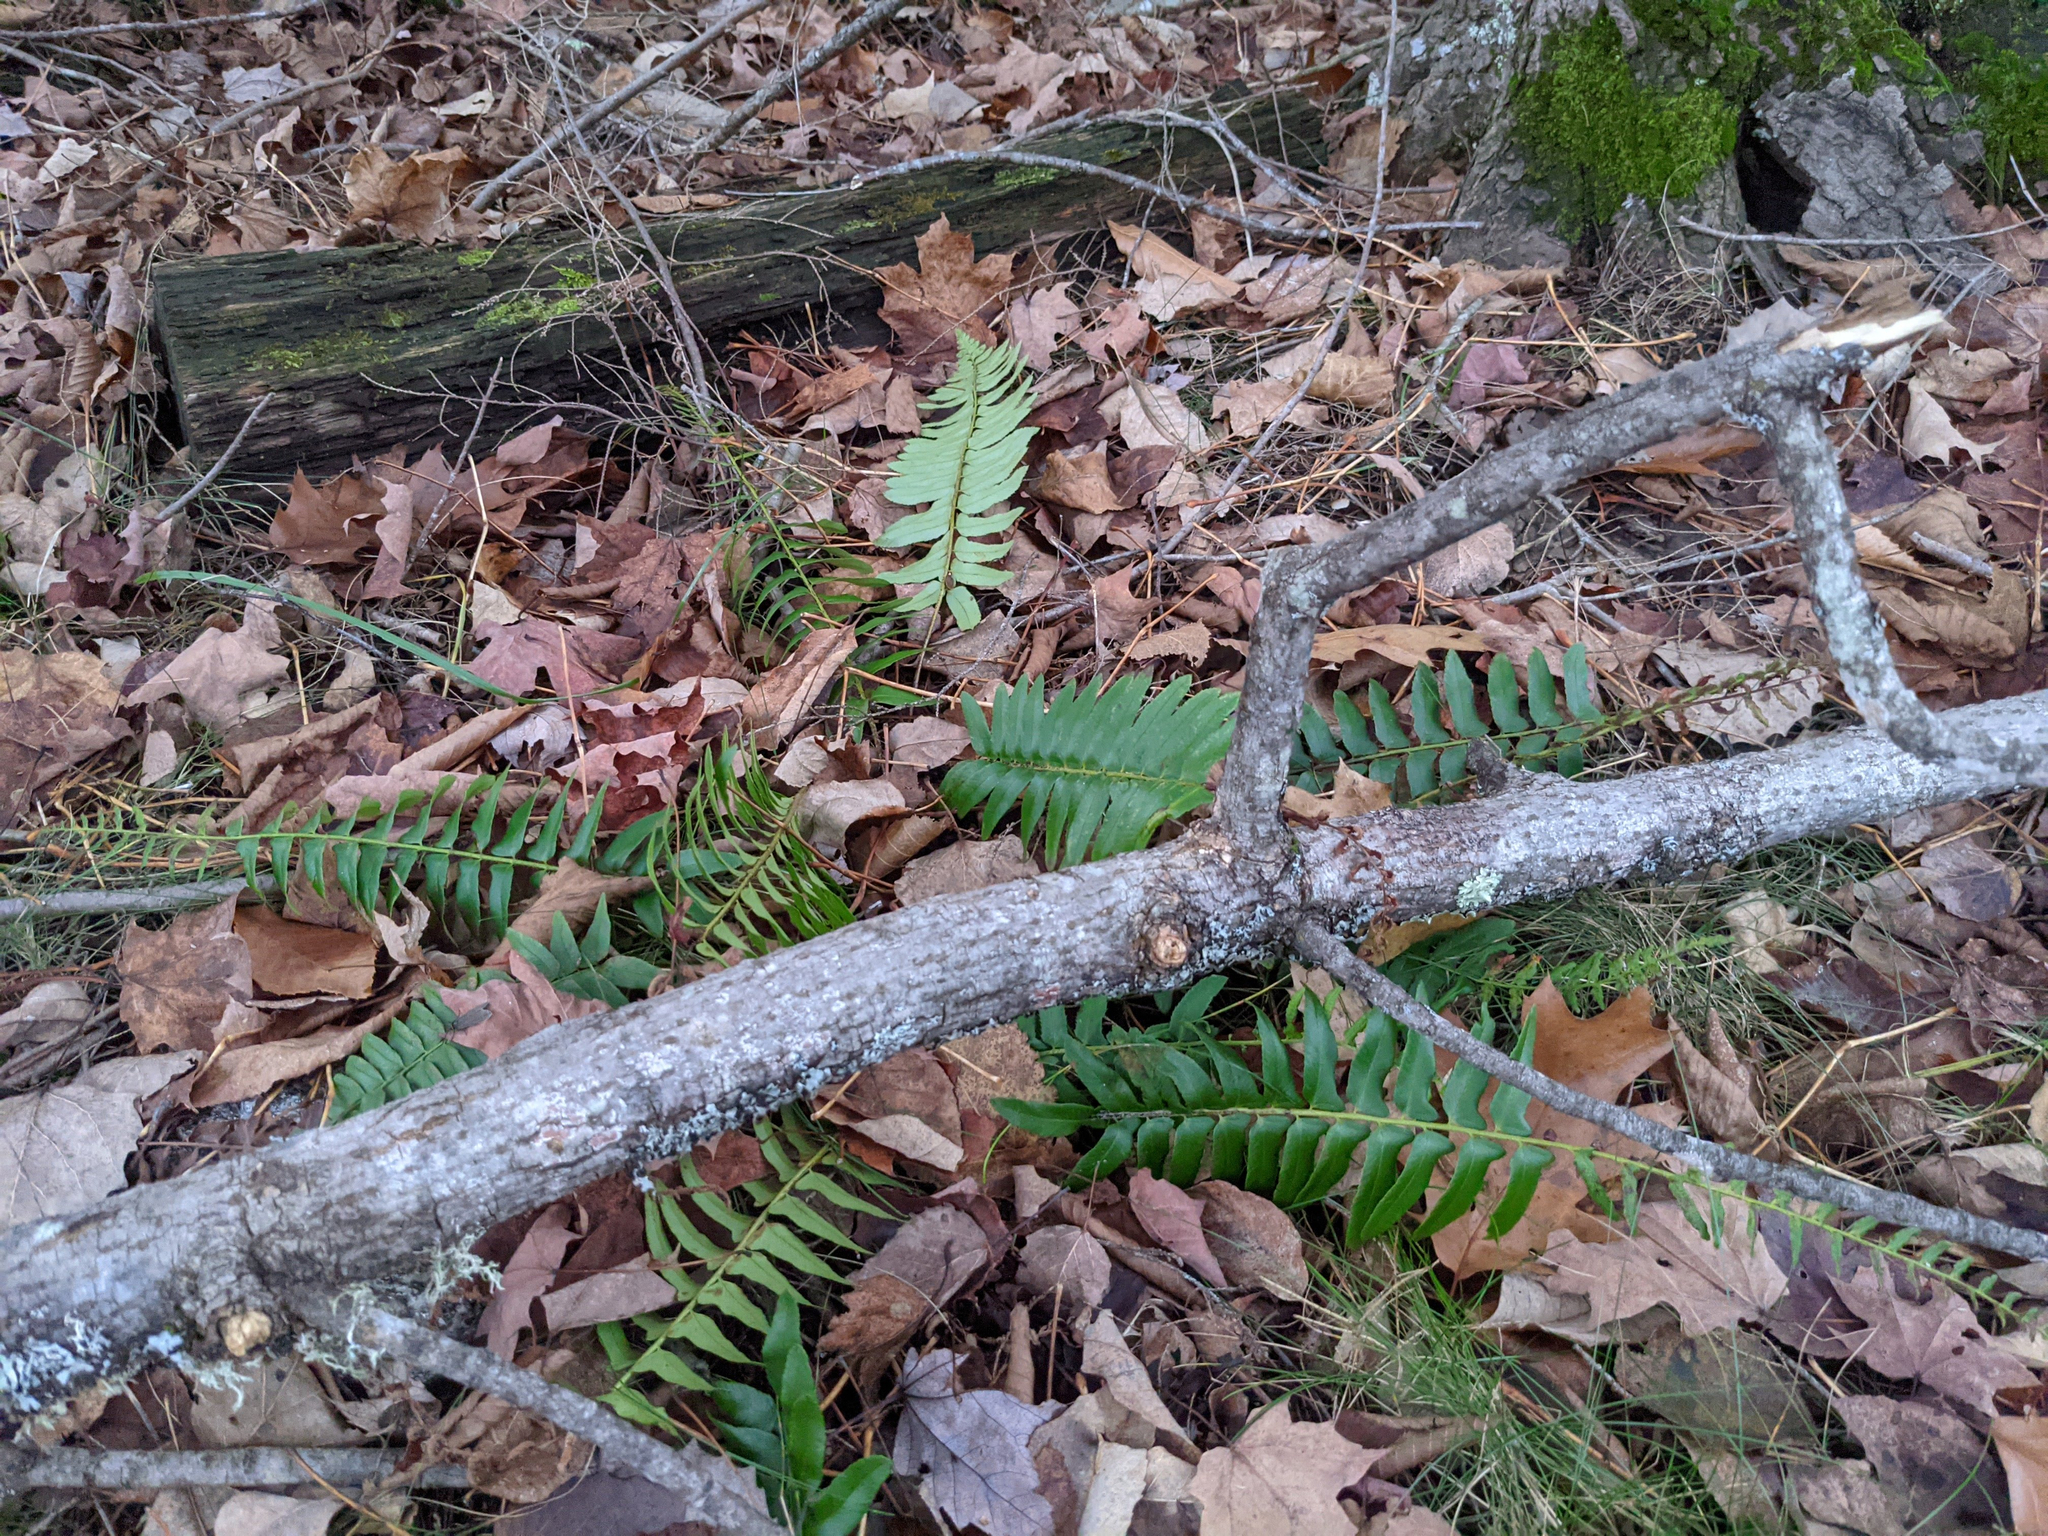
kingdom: Plantae
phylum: Tracheophyta
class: Polypodiopsida
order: Polypodiales
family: Dryopteridaceae
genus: Polystichum
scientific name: Polystichum acrostichoides
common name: Christmas fern
